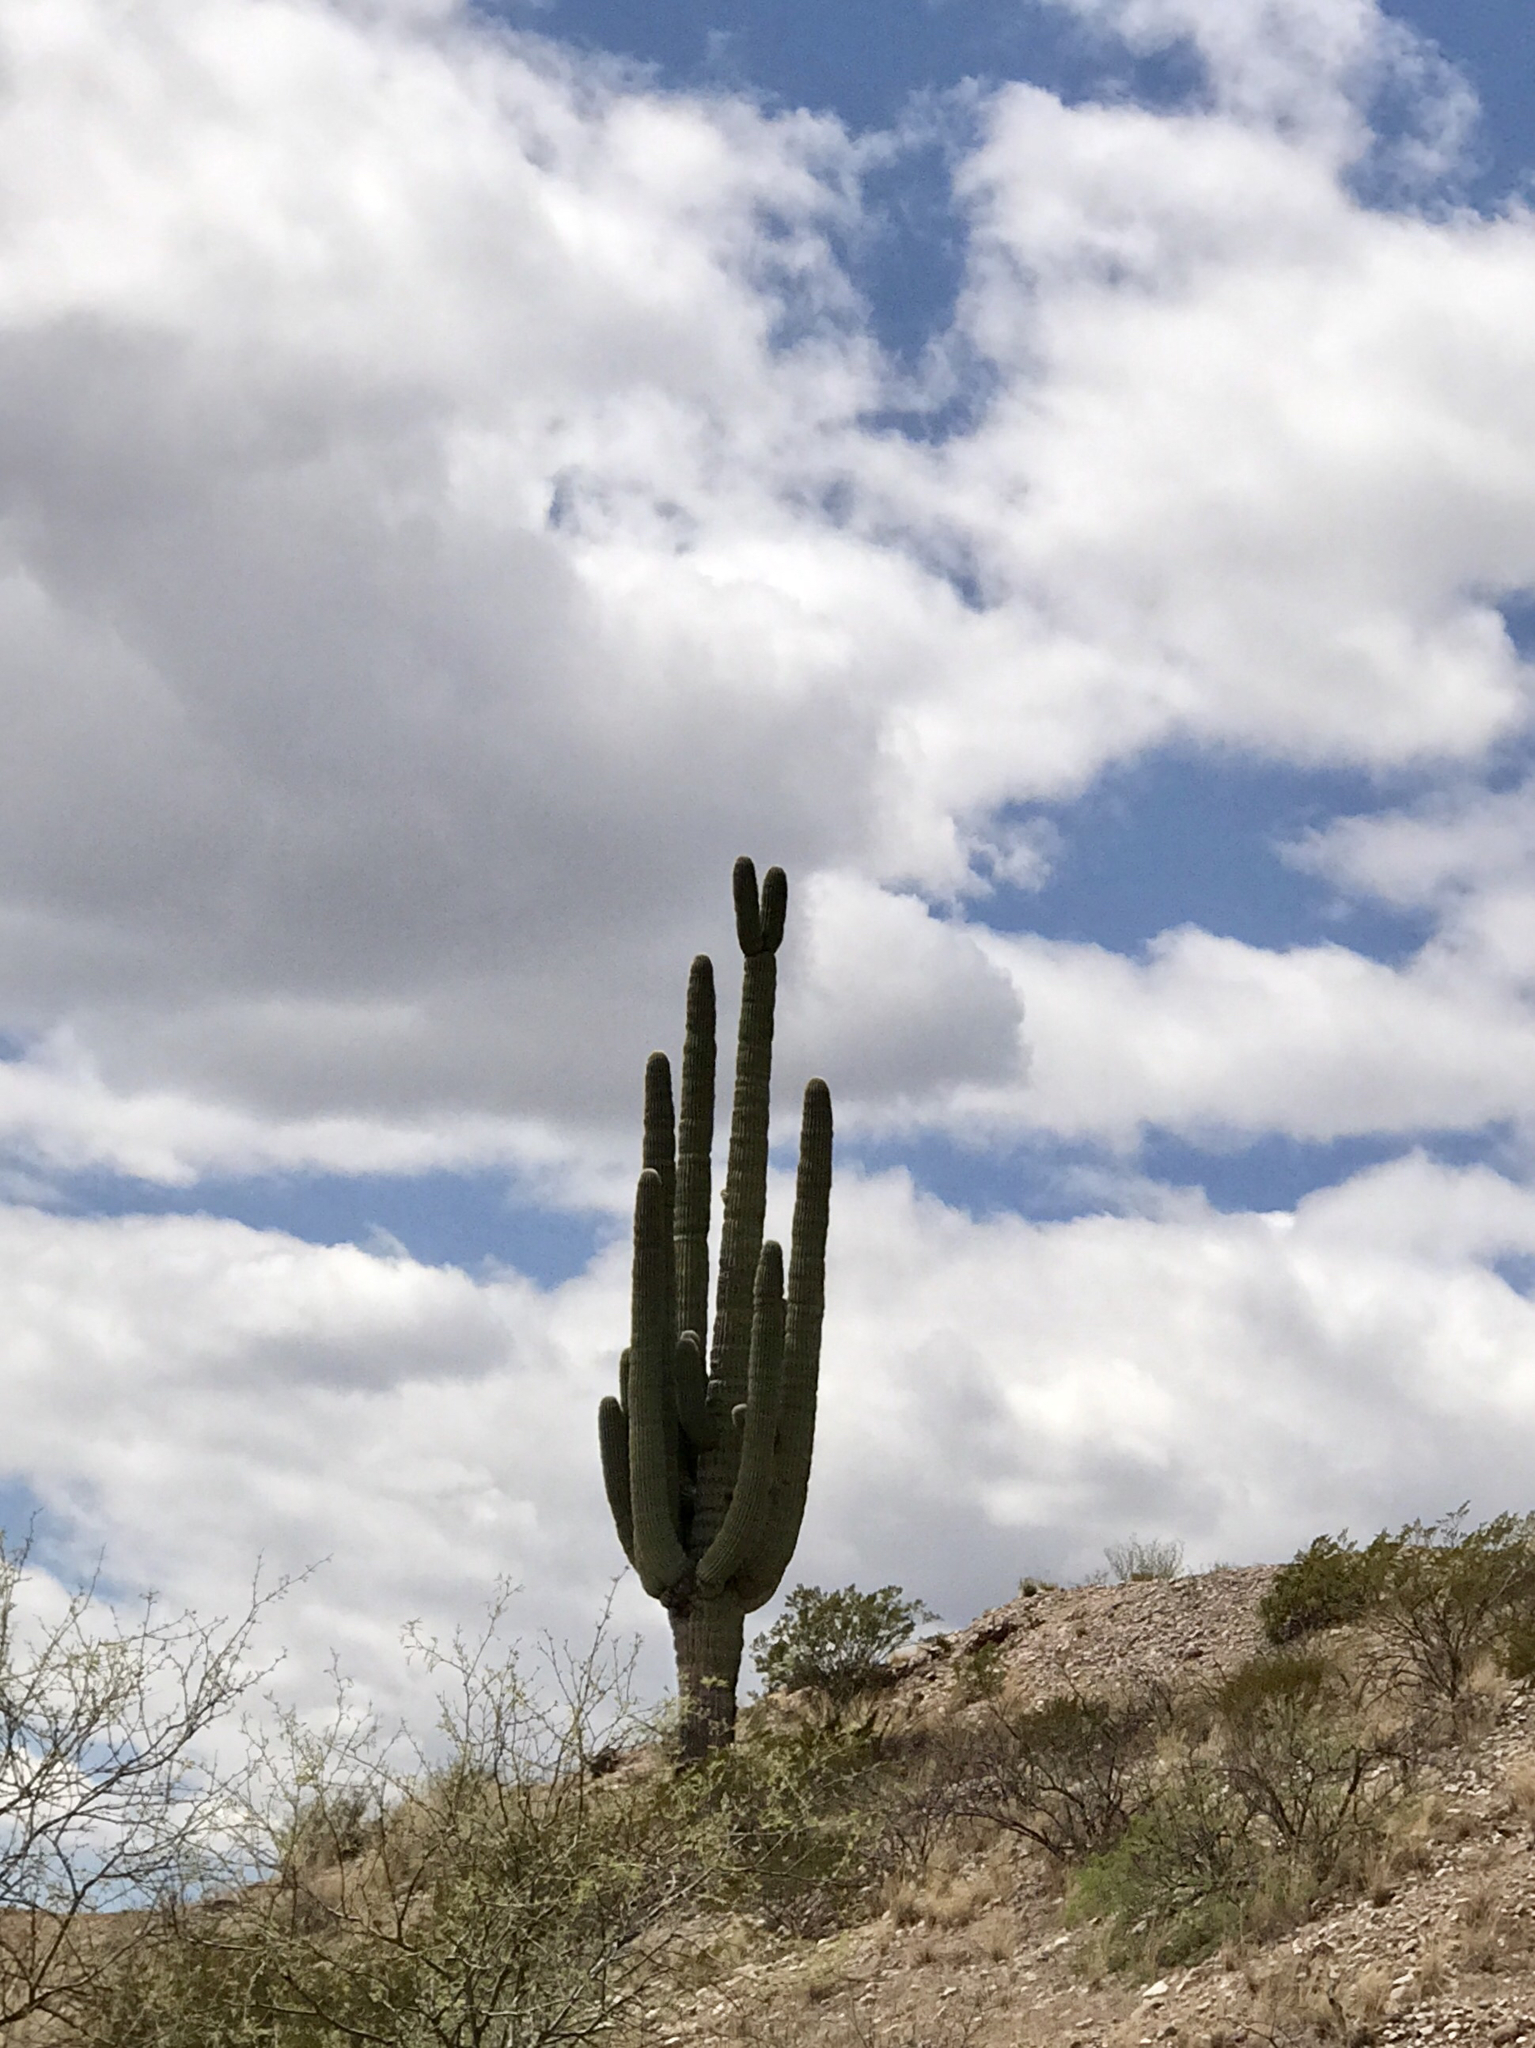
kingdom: Plantae
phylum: Tracheophyta
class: Magnoliopsida
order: Caryophyllales
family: Cactaceae
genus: Carnegiea
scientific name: Carnegiea gigantea
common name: Saguaro
